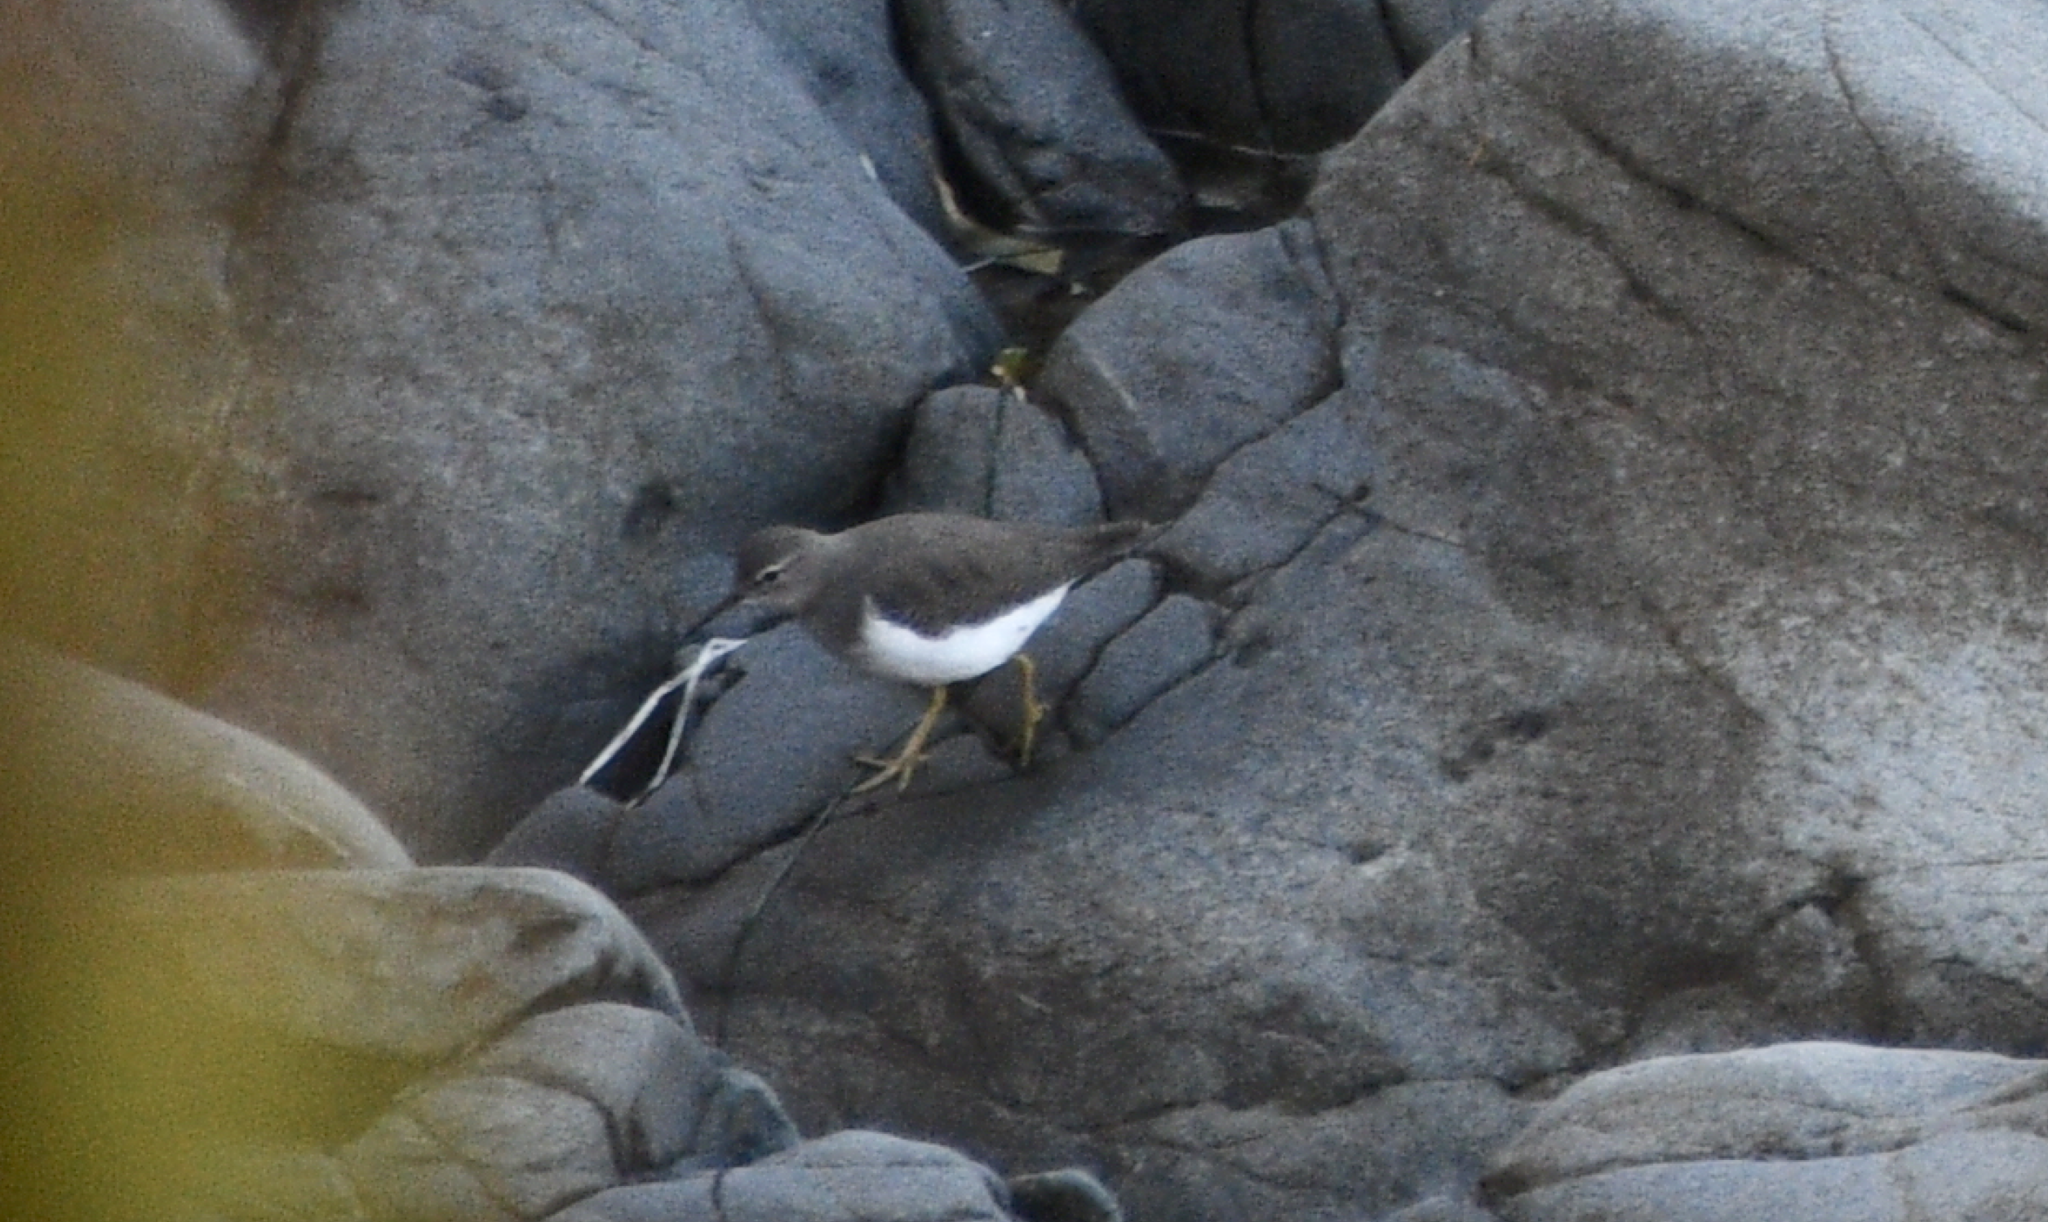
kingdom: Animalia
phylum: Chordata
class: Aves
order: Charadriiformes
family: Scolopacidae
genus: Actitis
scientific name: Actitis macularius
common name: Spotted sandpiper
